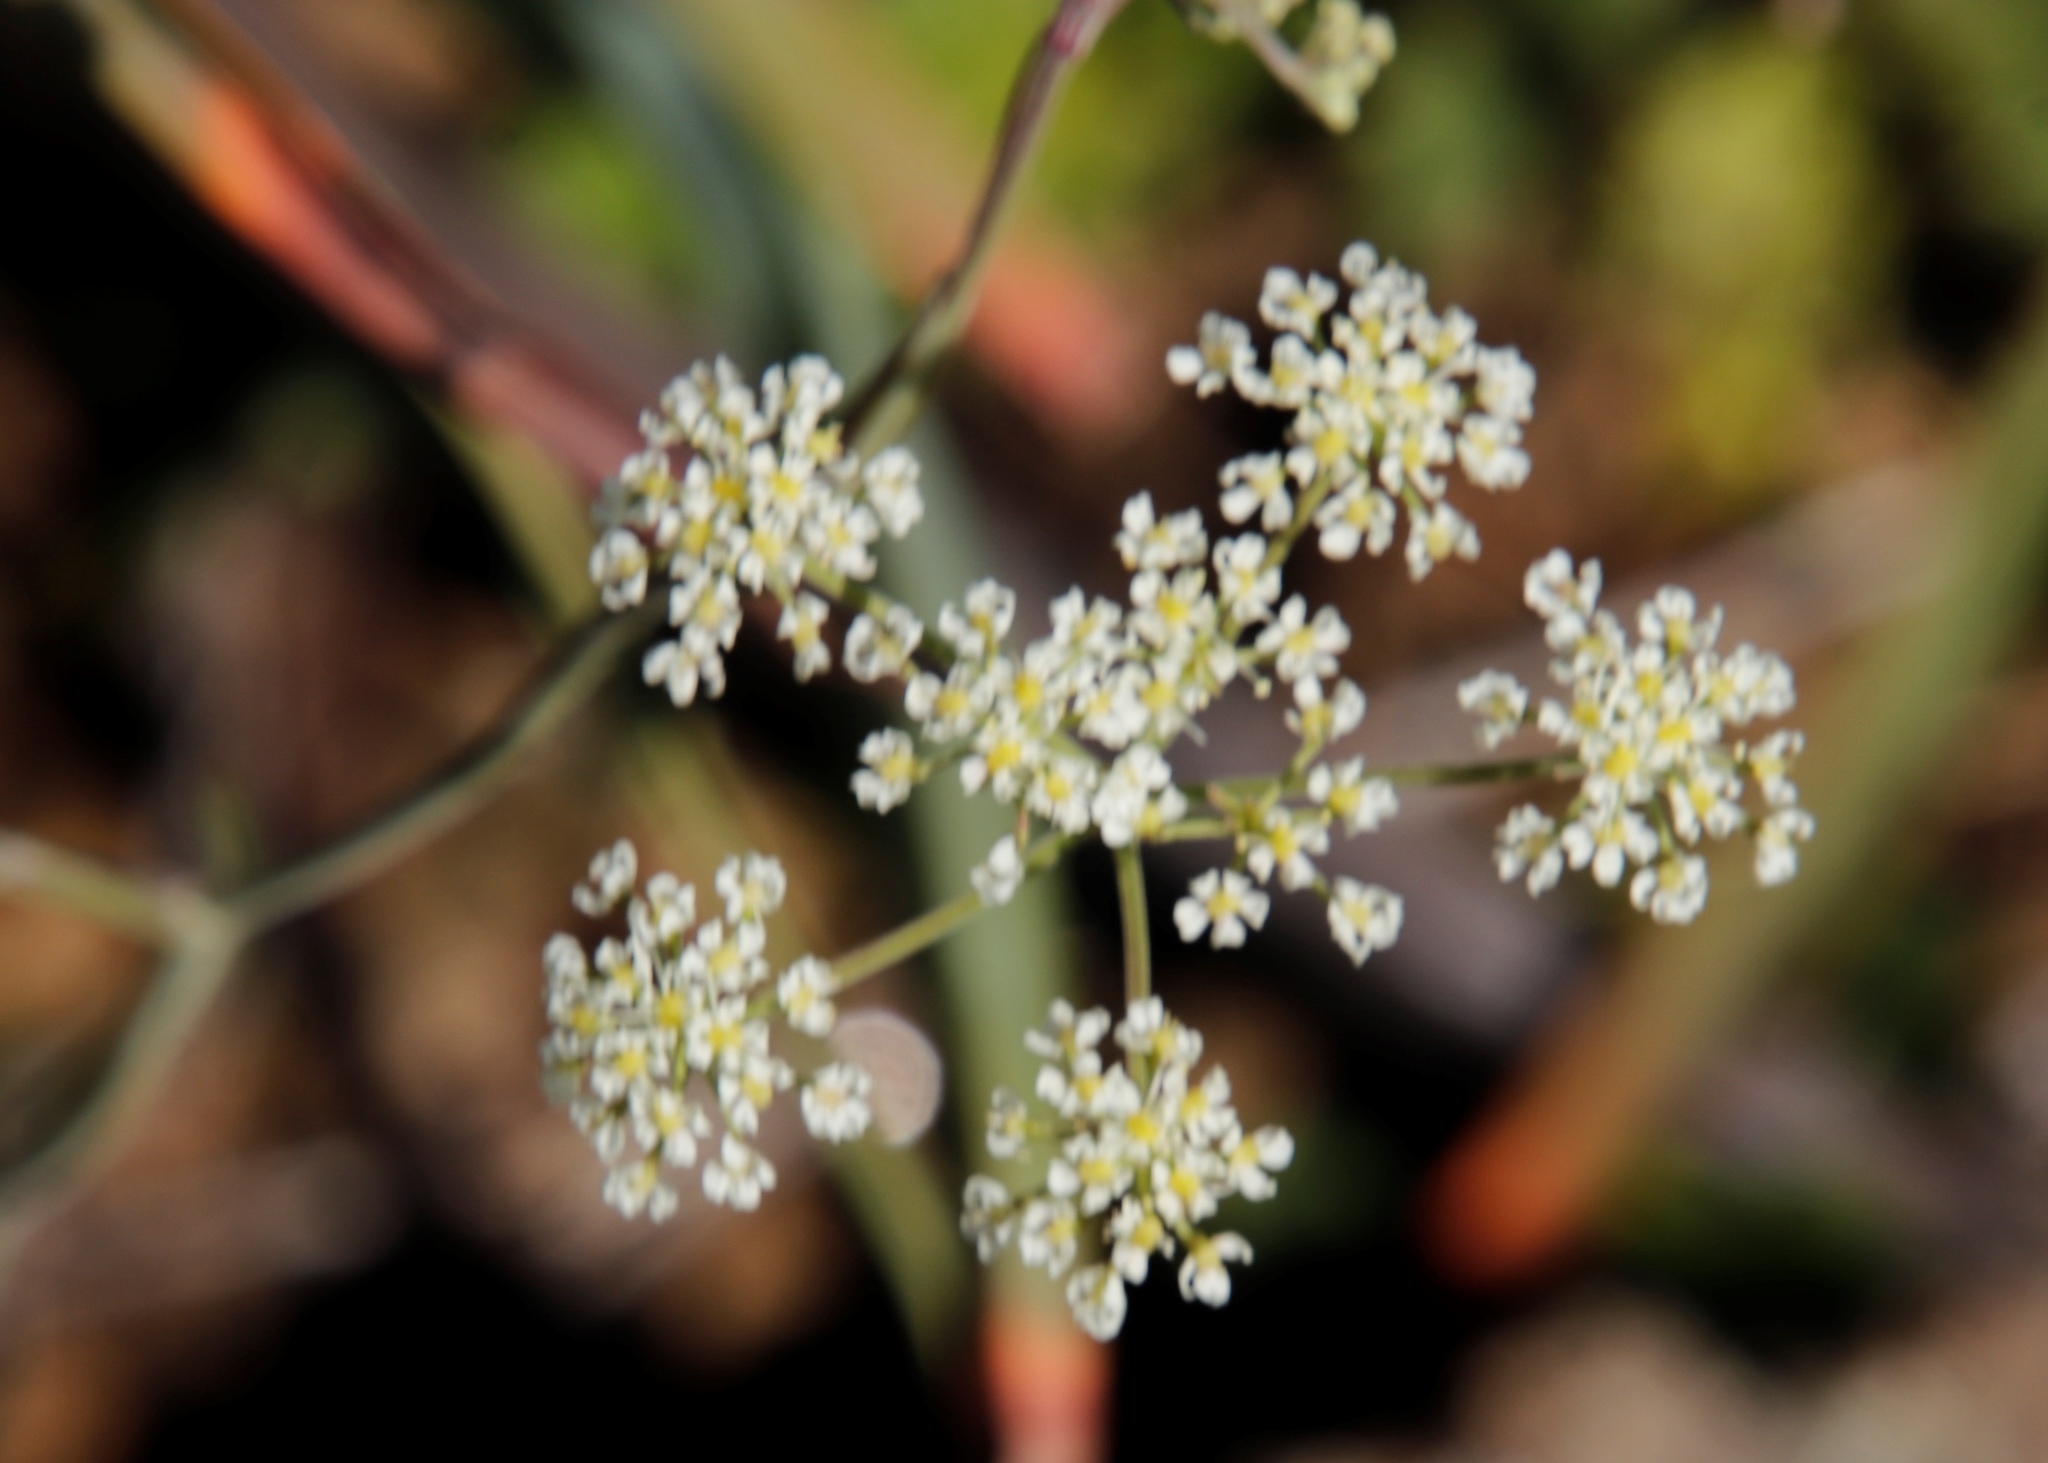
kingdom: Plantae
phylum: Tracheophyta
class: Magnoliopsida
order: Apiales
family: Apiaceae
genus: Pimpinella
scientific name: Pimpinella caffra
